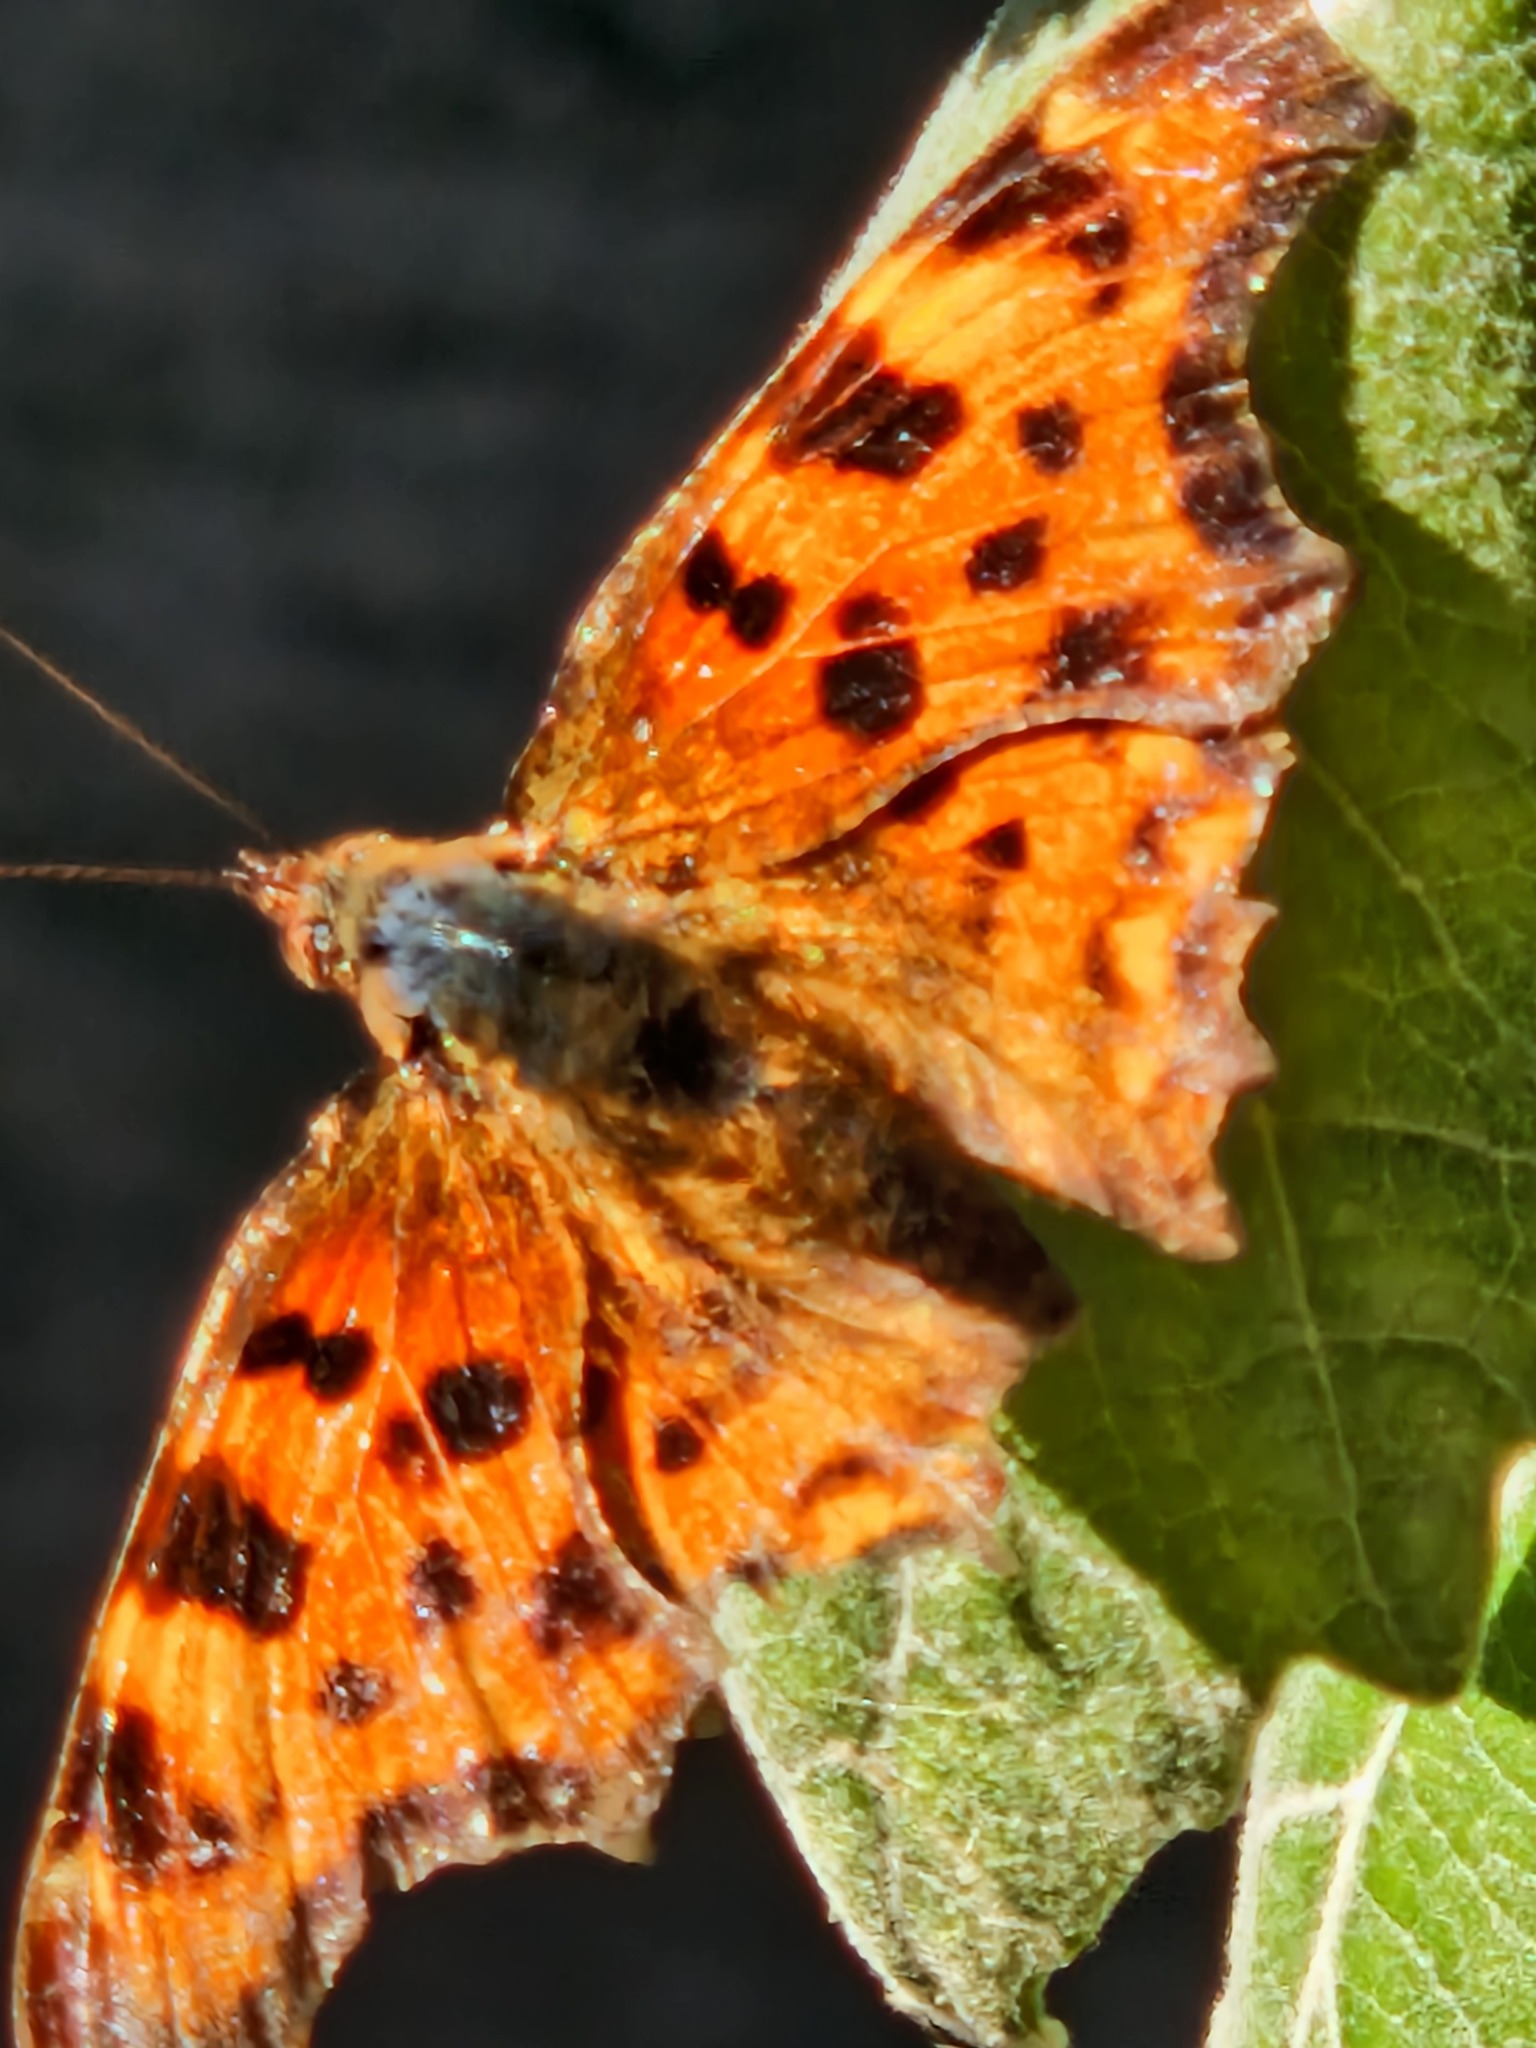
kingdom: Animalia
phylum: Arthropoda
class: Insecta
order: Lepidoptera
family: Nymphalidae
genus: Polygonia
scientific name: Polygonia c-album
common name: Comma
